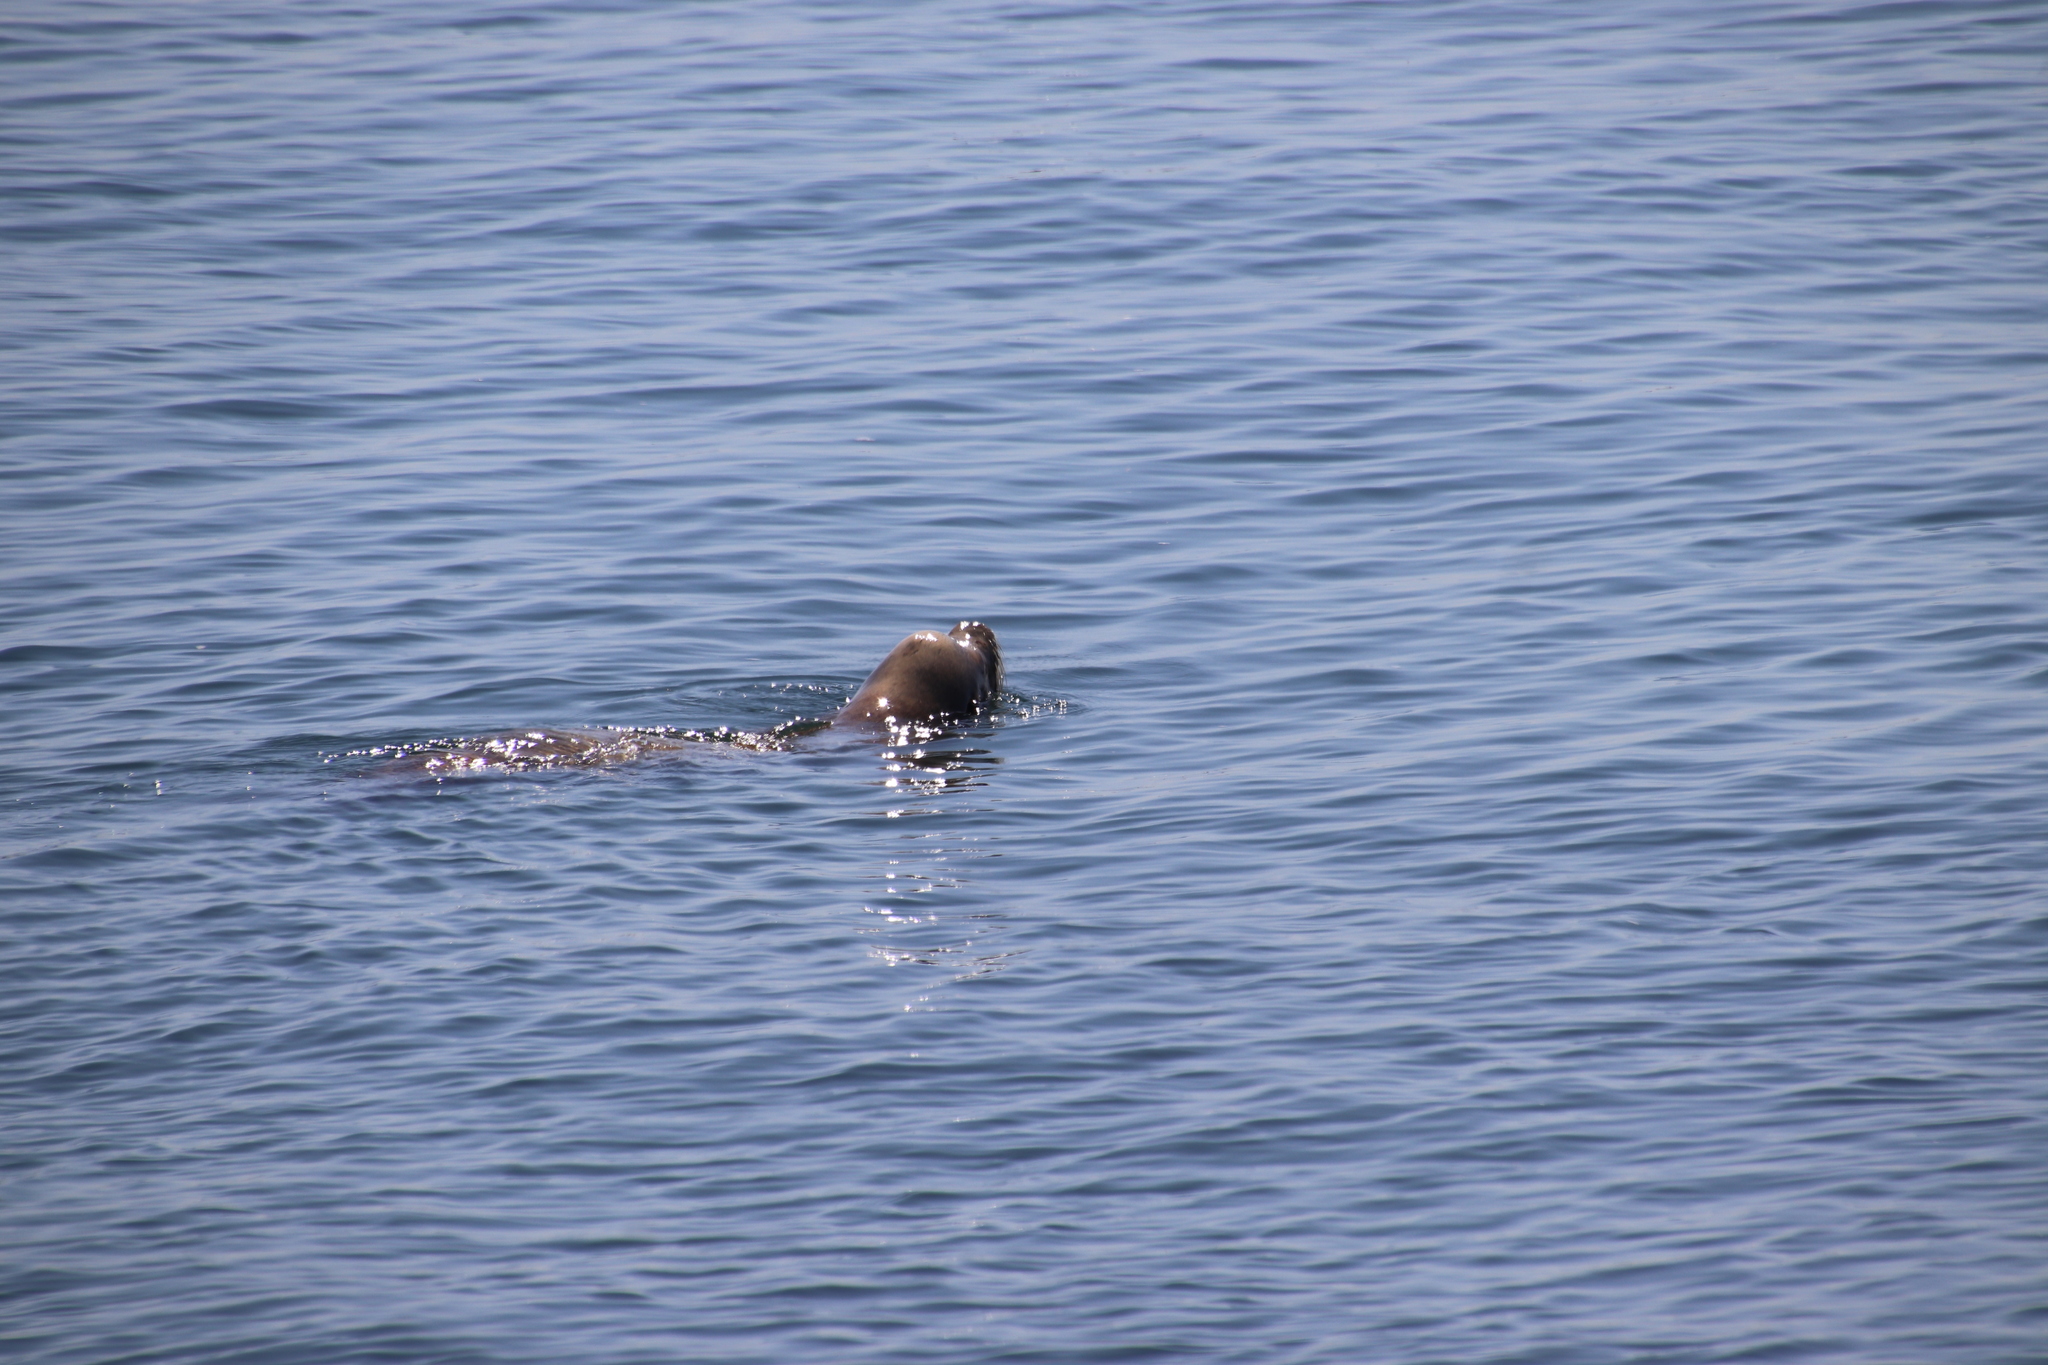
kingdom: Animalia
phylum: Chordata
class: Mammalia
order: Carnivora
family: Otariidae
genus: Zalophus
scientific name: Zalophus californianus
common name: California sea lion
